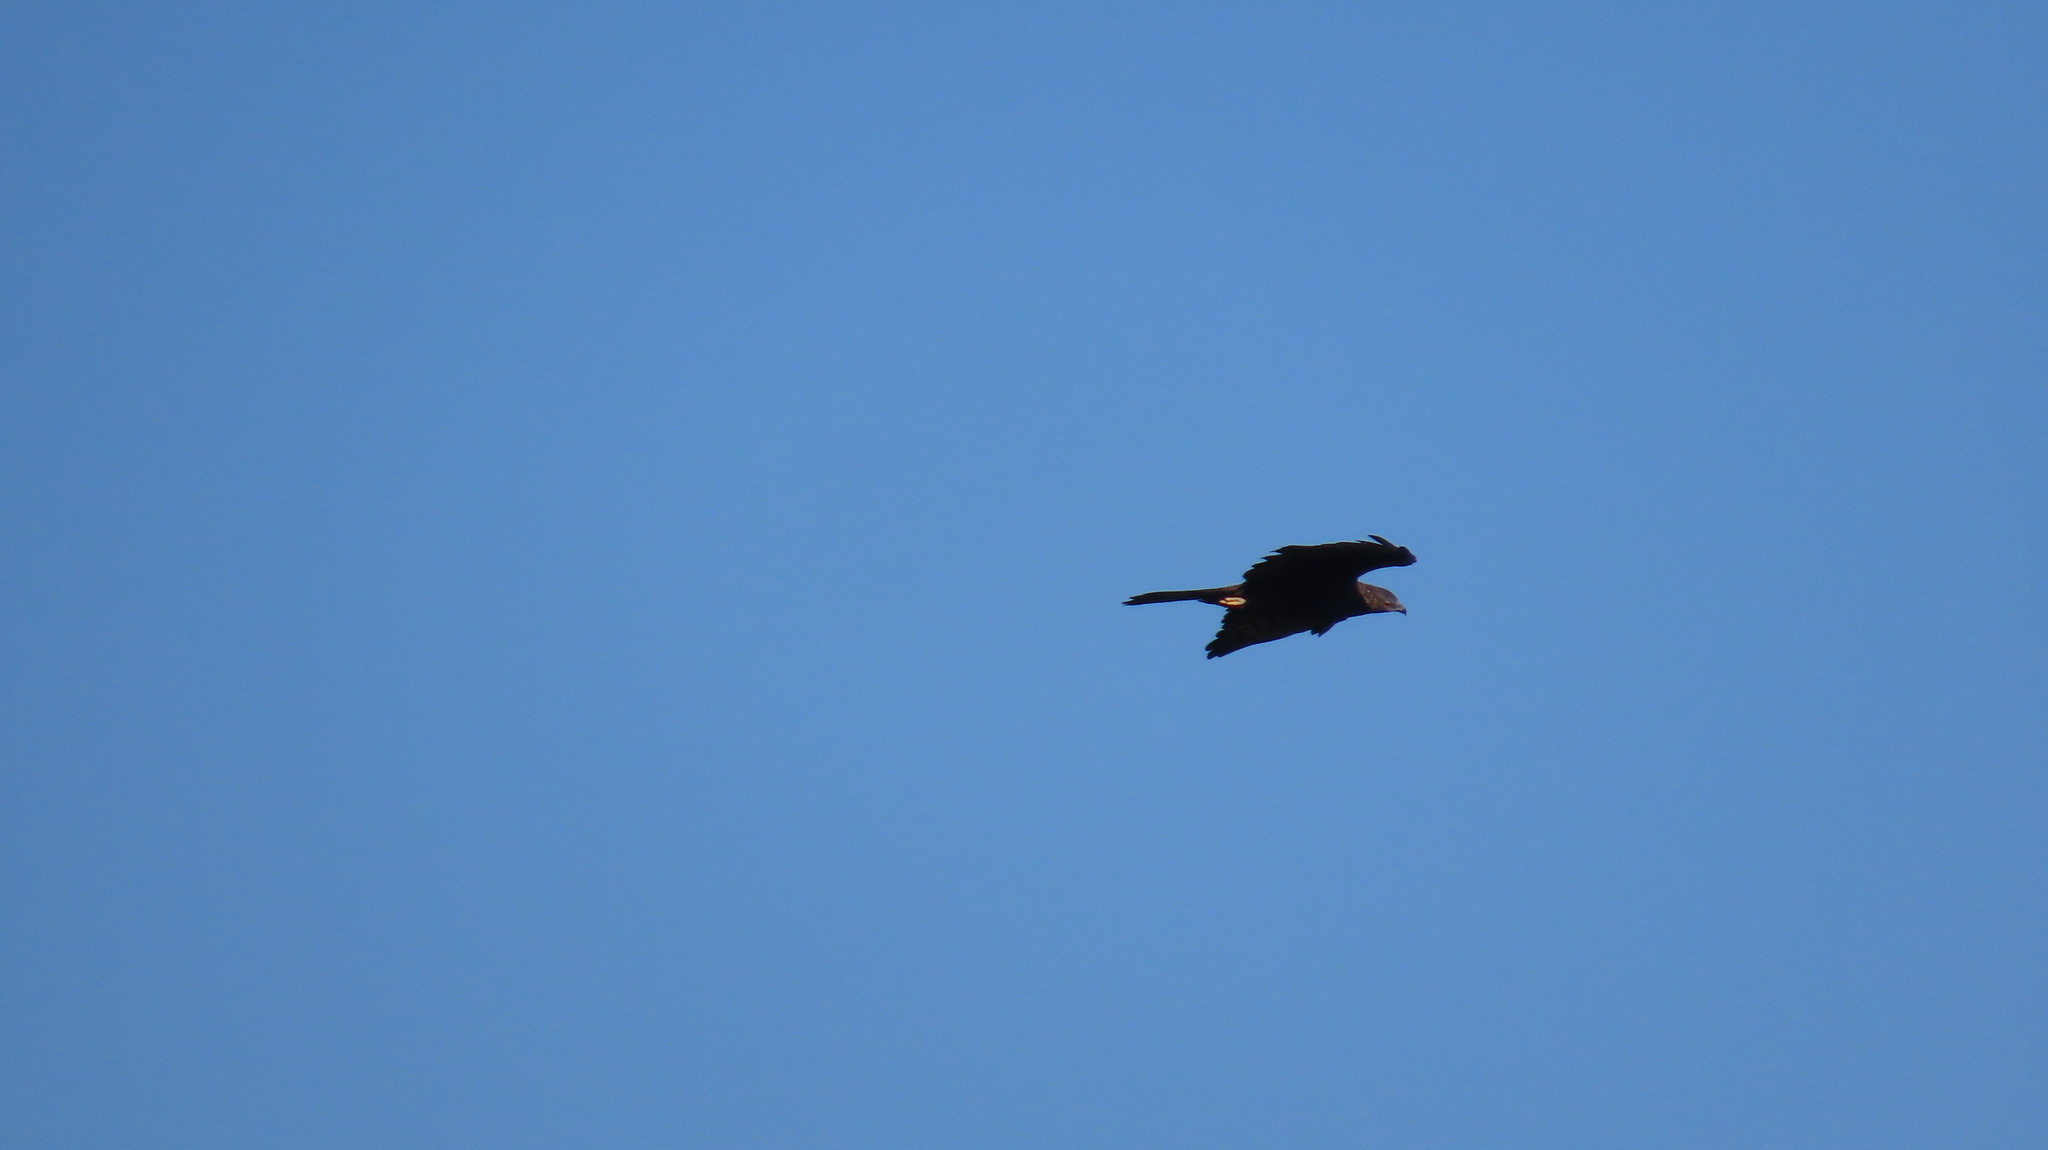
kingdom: Animalia
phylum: Chordata
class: Aves
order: Accipitriformes
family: Accipitridae
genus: Pernis
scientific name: Pernis ptilorhynchus
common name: Crested honey buzzard
